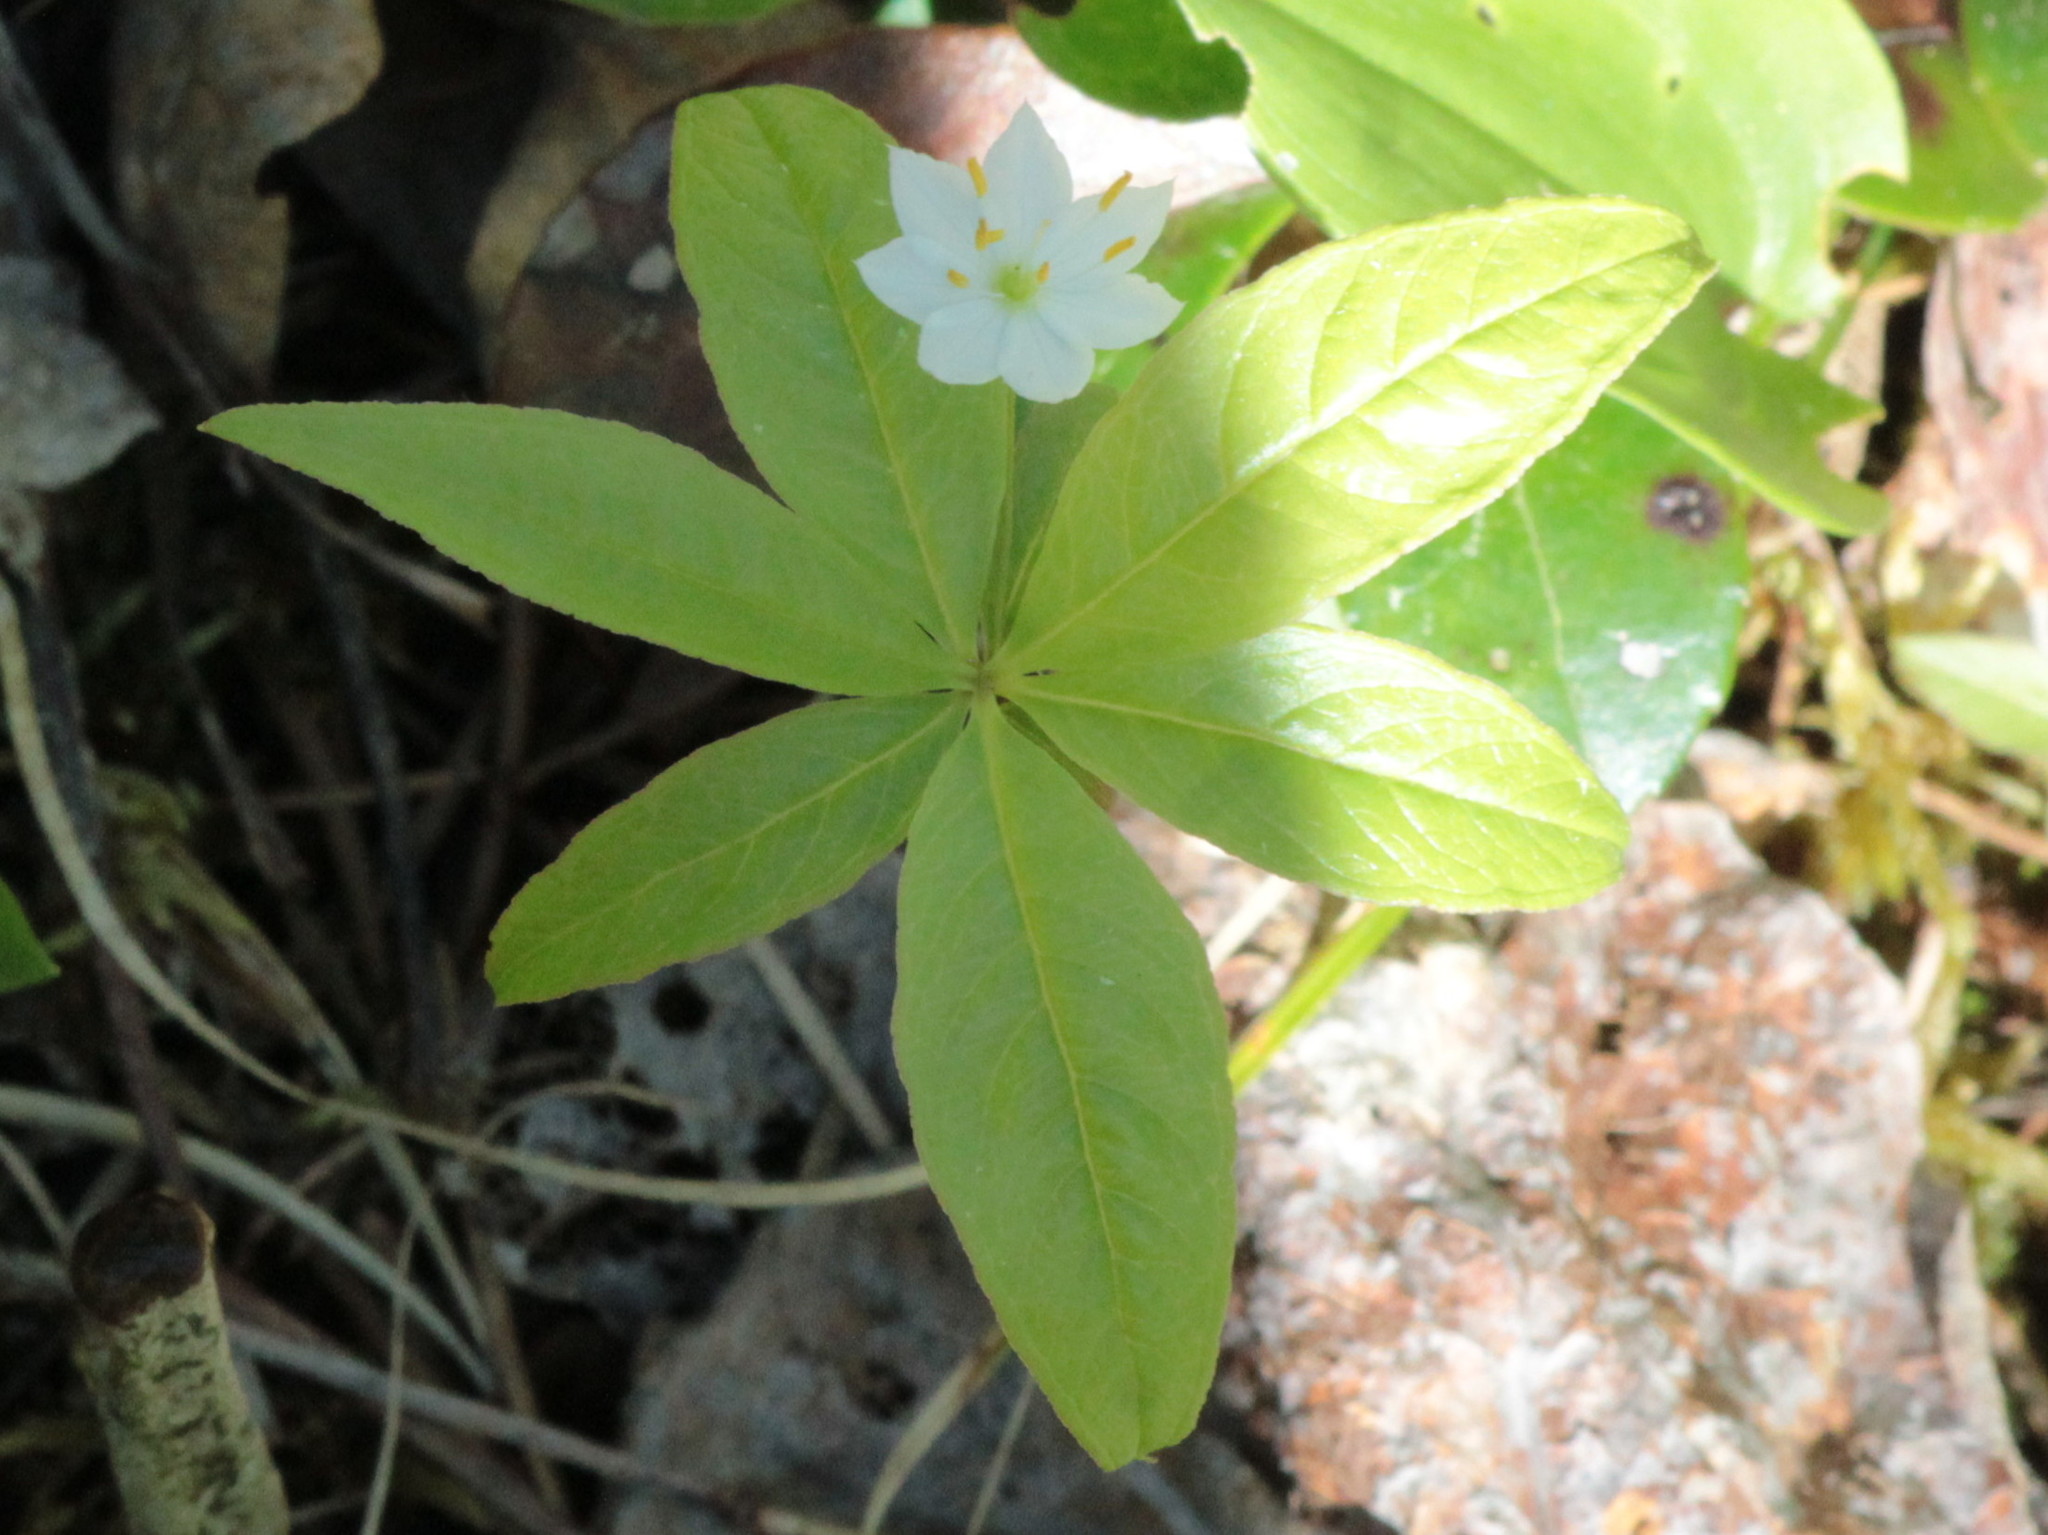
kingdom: Plantae
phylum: Tracheophyta
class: Magnoliopsida
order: Ericales
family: Primulaceae
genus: Lysimachia
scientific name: Lysimachia borealis
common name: American starflower
